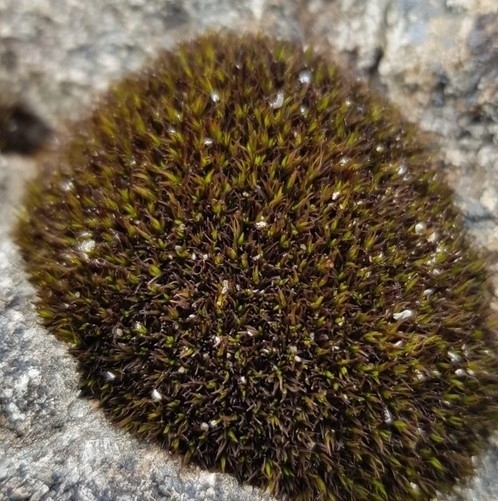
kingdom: Plantae
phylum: Bryophyta
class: Bryopsida
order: Dicranales
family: Leucobryaceae
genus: Campylopus
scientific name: Campylopus atrovirens
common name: Bristly swan-neck moss
